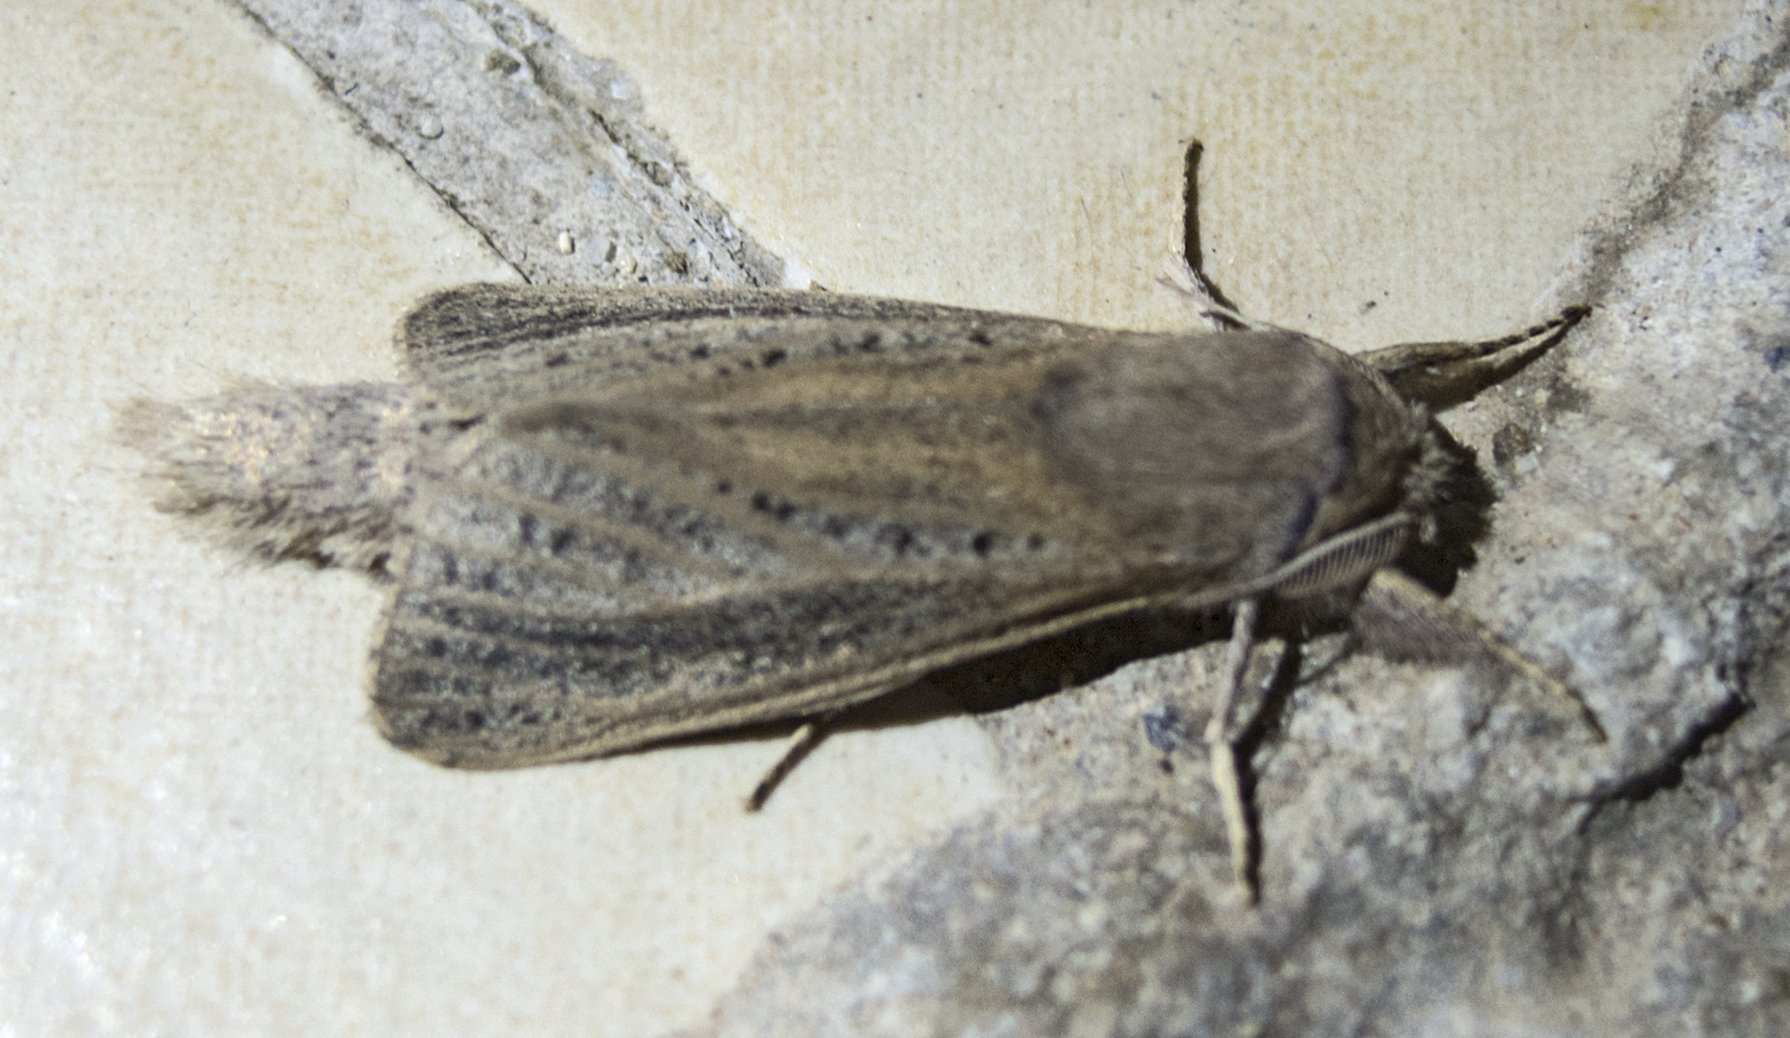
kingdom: Animalia
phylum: Arthropoda
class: Insecta
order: Lepidoptera
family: Cossidae
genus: Phragmataecia
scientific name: Phragmataecia castaneae
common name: Reed leopard
